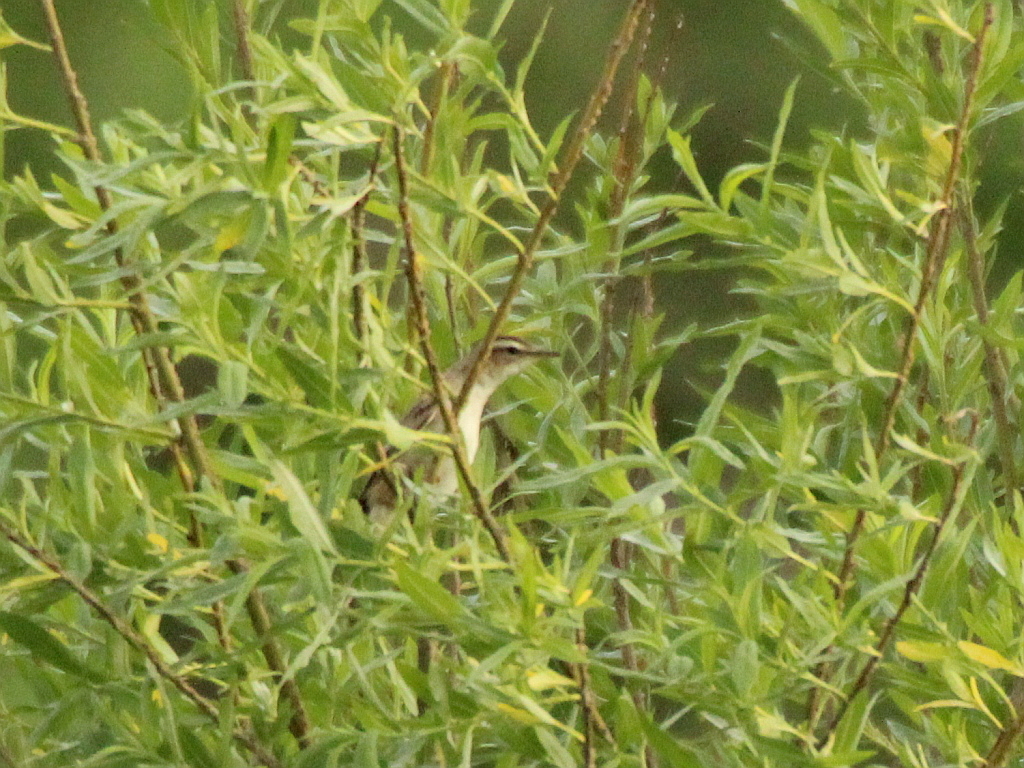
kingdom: Animalia
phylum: Chordata
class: Aves
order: Passeriformes
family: Acrocephalidae
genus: Acrocephalus
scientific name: Acrocephalus schoenobaenus
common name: Sedge warbler
